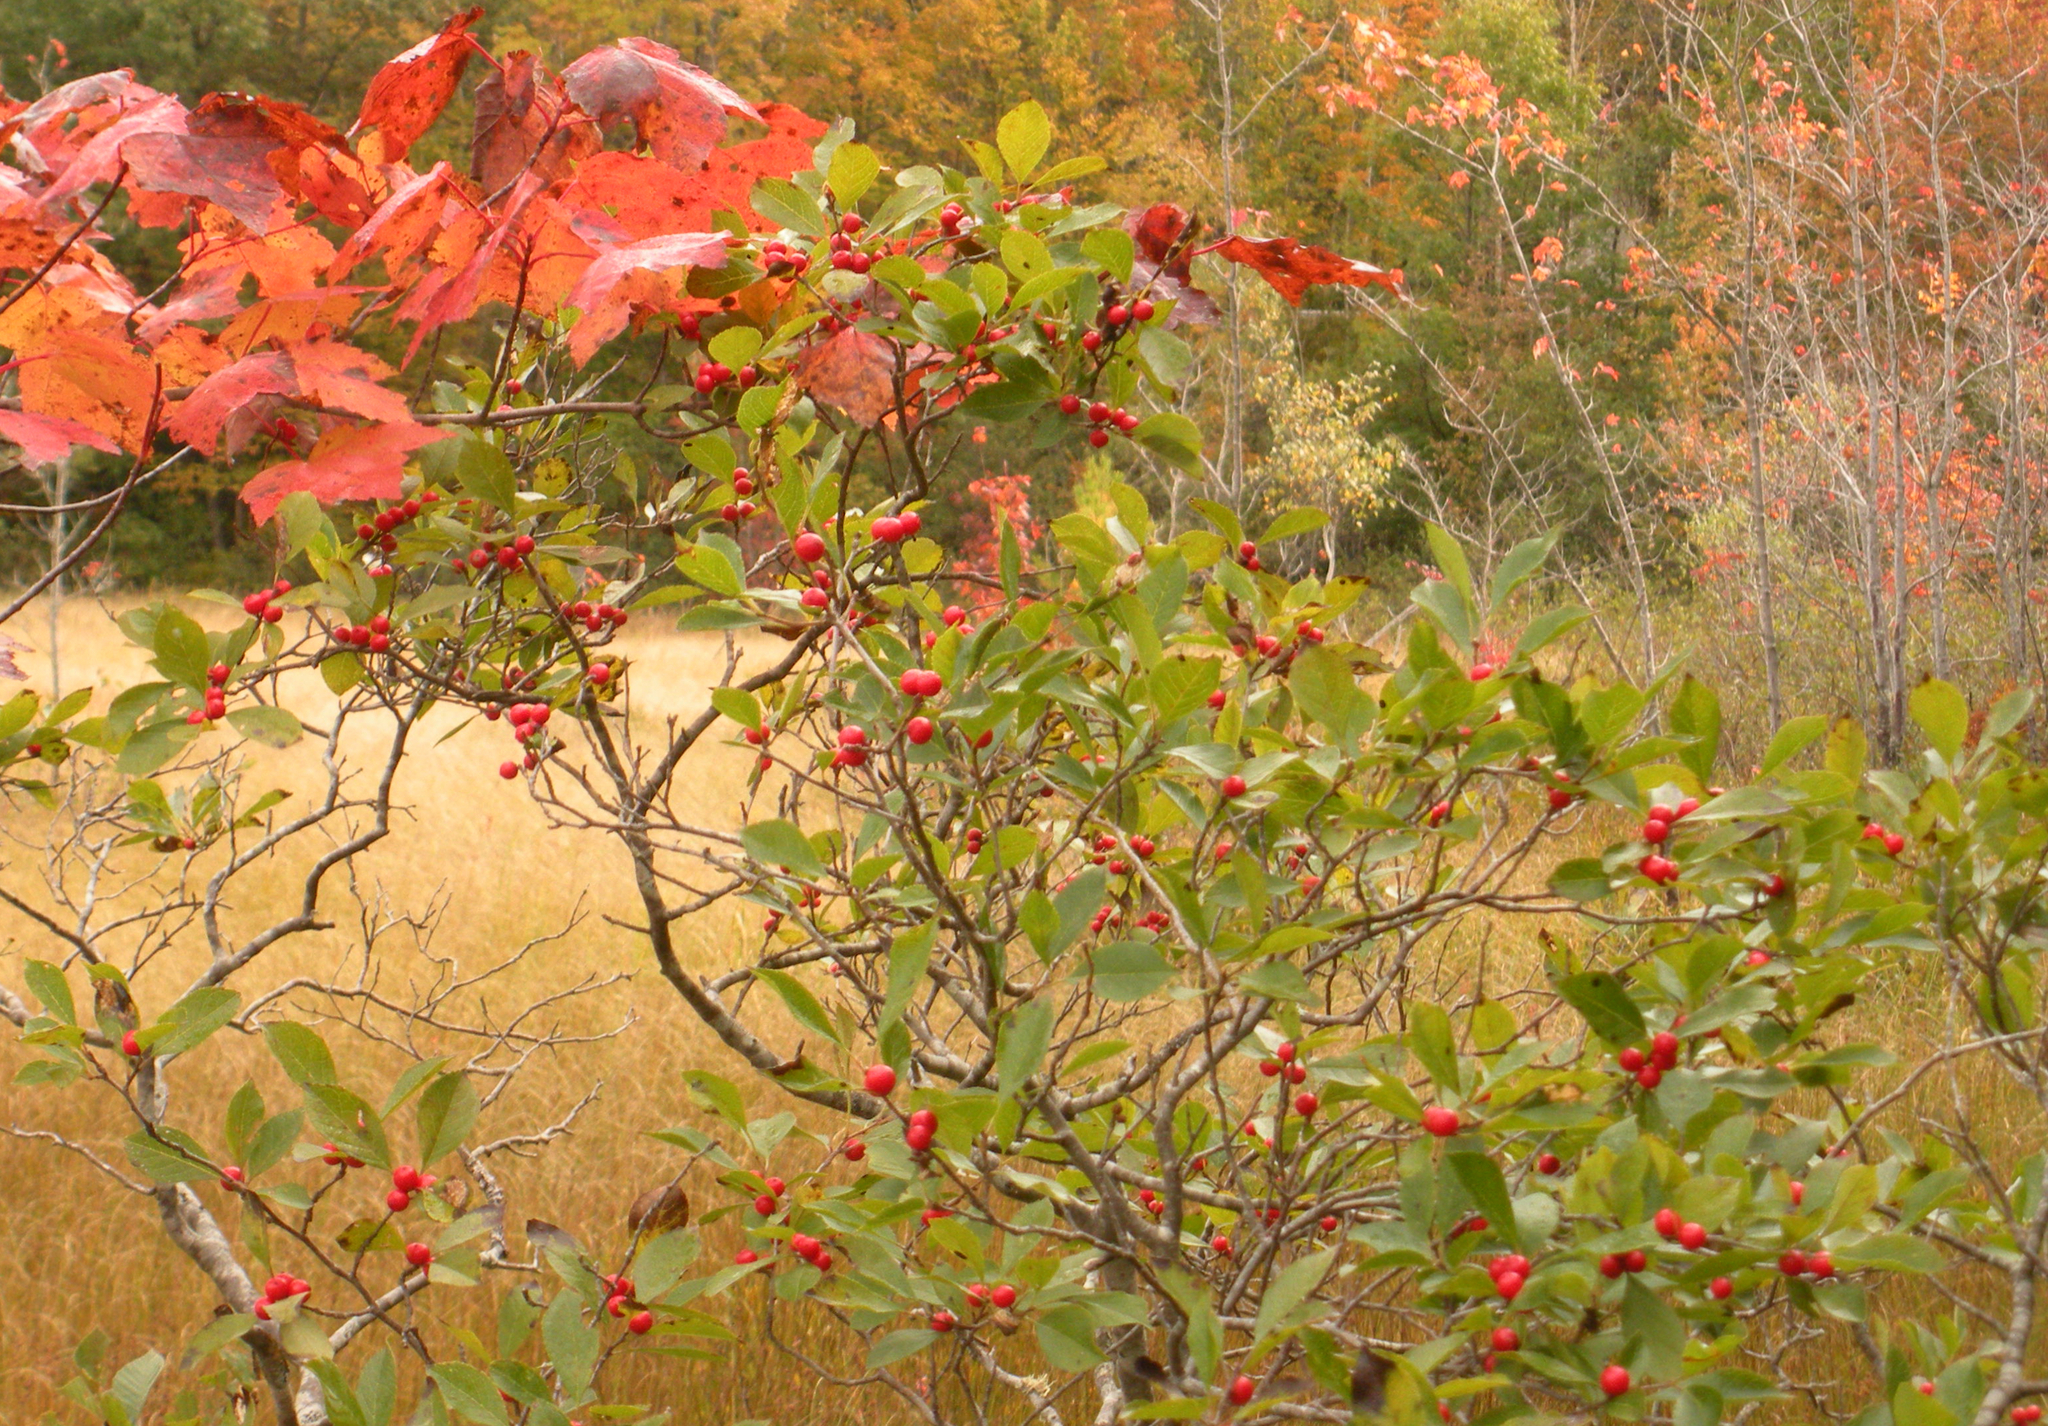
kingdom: Plantae
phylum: Tracheophyta
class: Magnoliopsida
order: Aquifoliales
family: Aquifoliaceae
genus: Ilex
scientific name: Ilex verticillata
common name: Virginia winterberry
